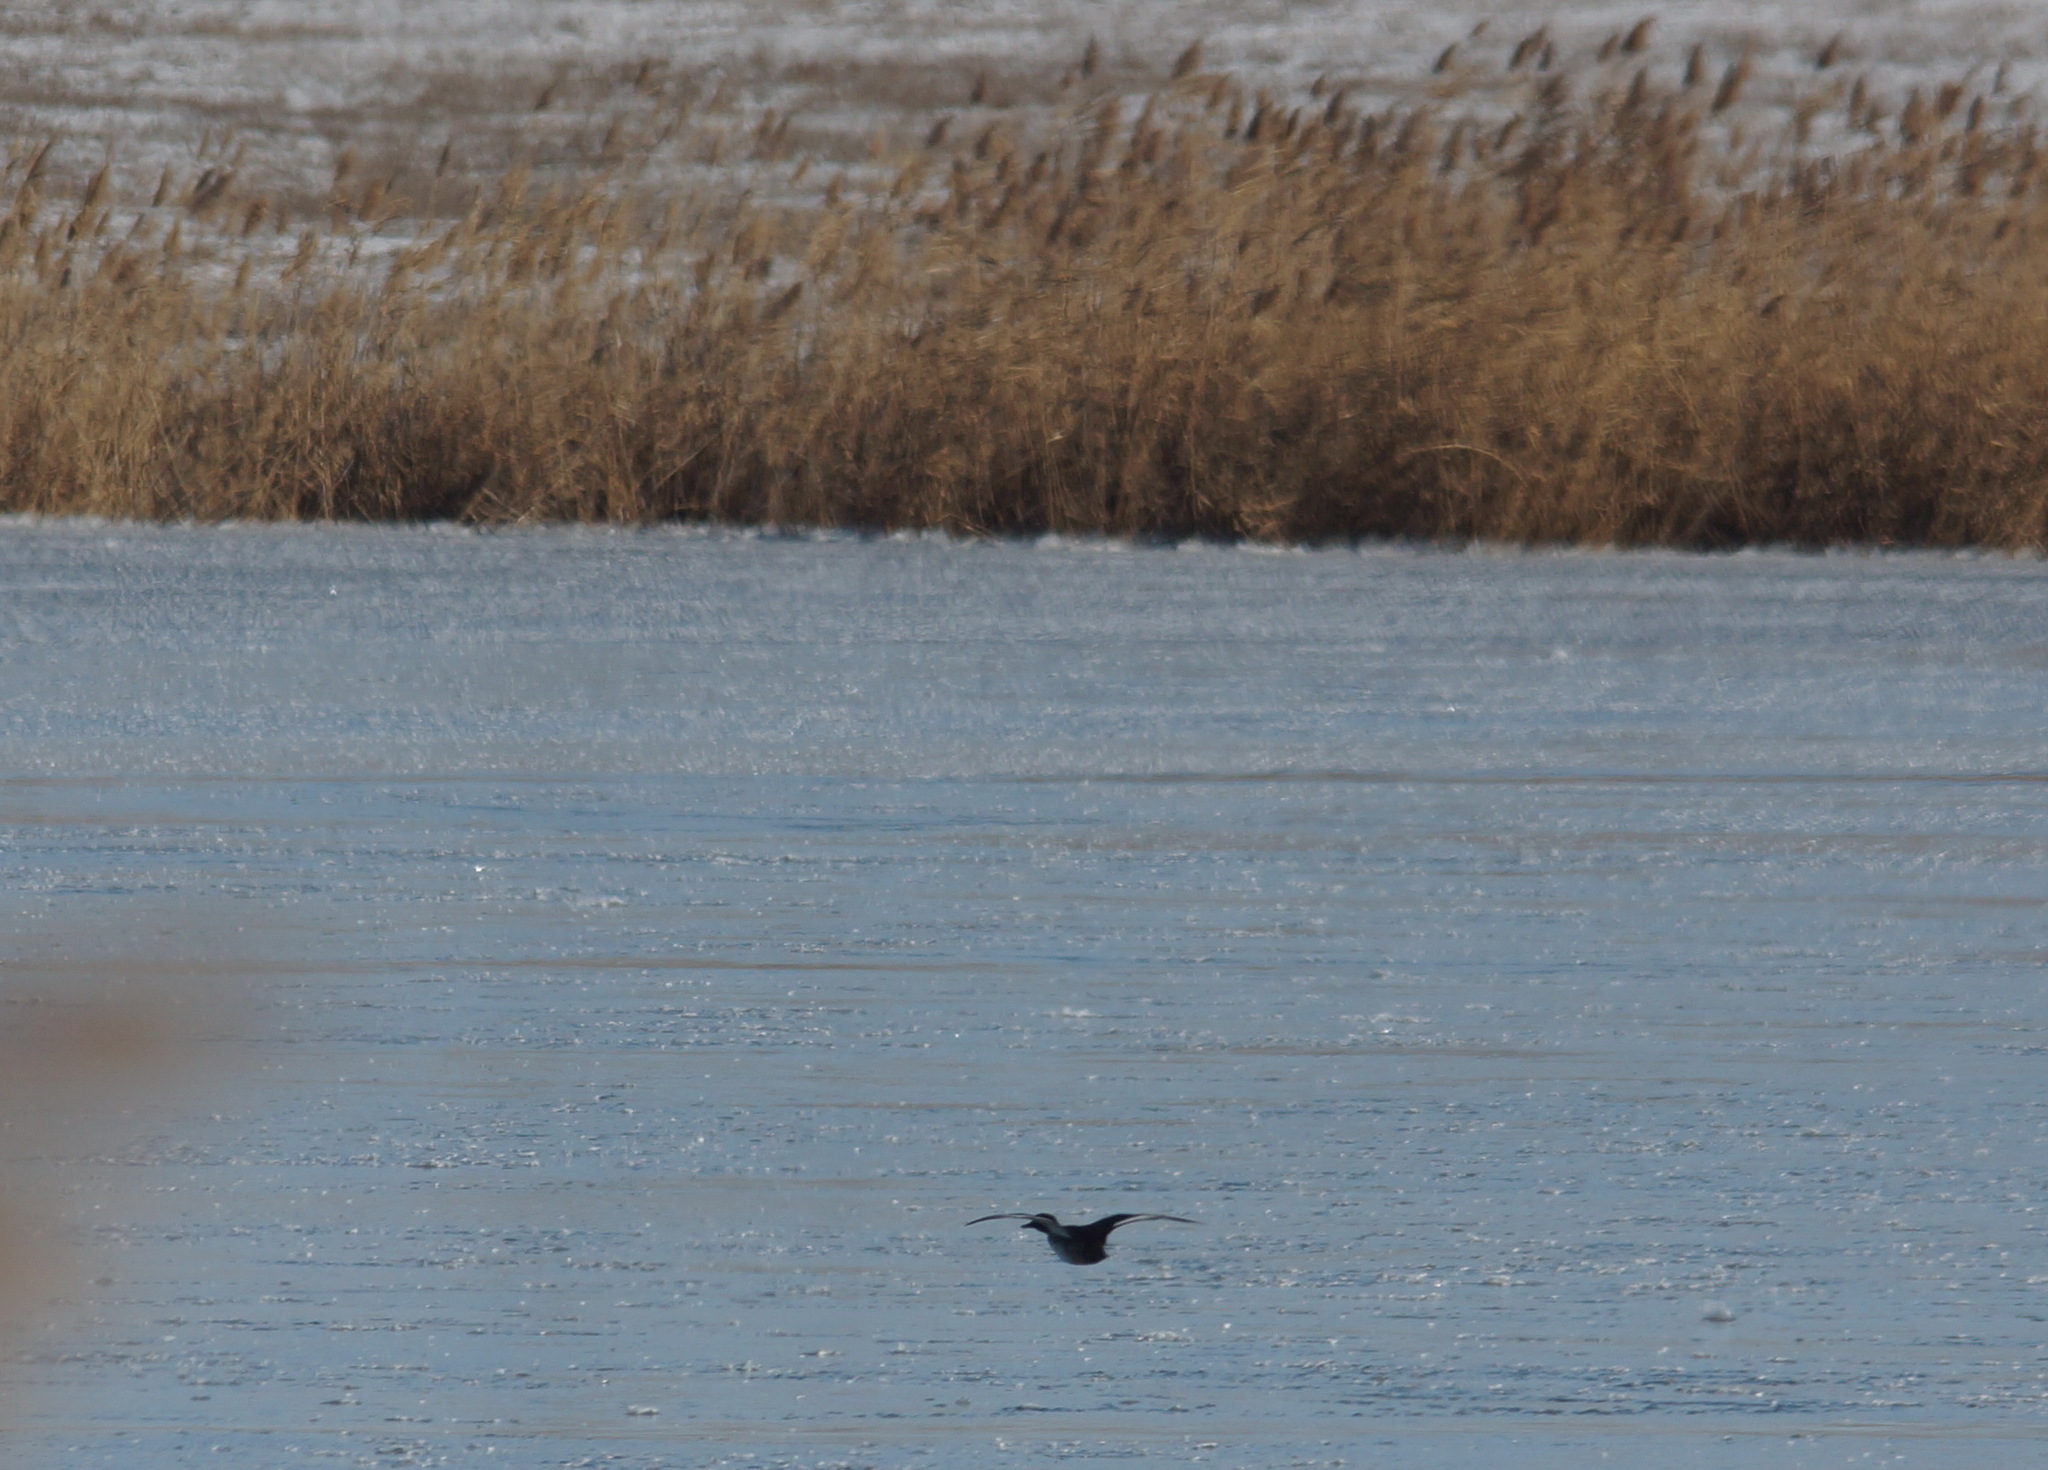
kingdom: Animalia
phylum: Chordata
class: Aves
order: Anseriformes
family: Anatidae
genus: Anas
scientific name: Anas crecca
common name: Eurasian teal
